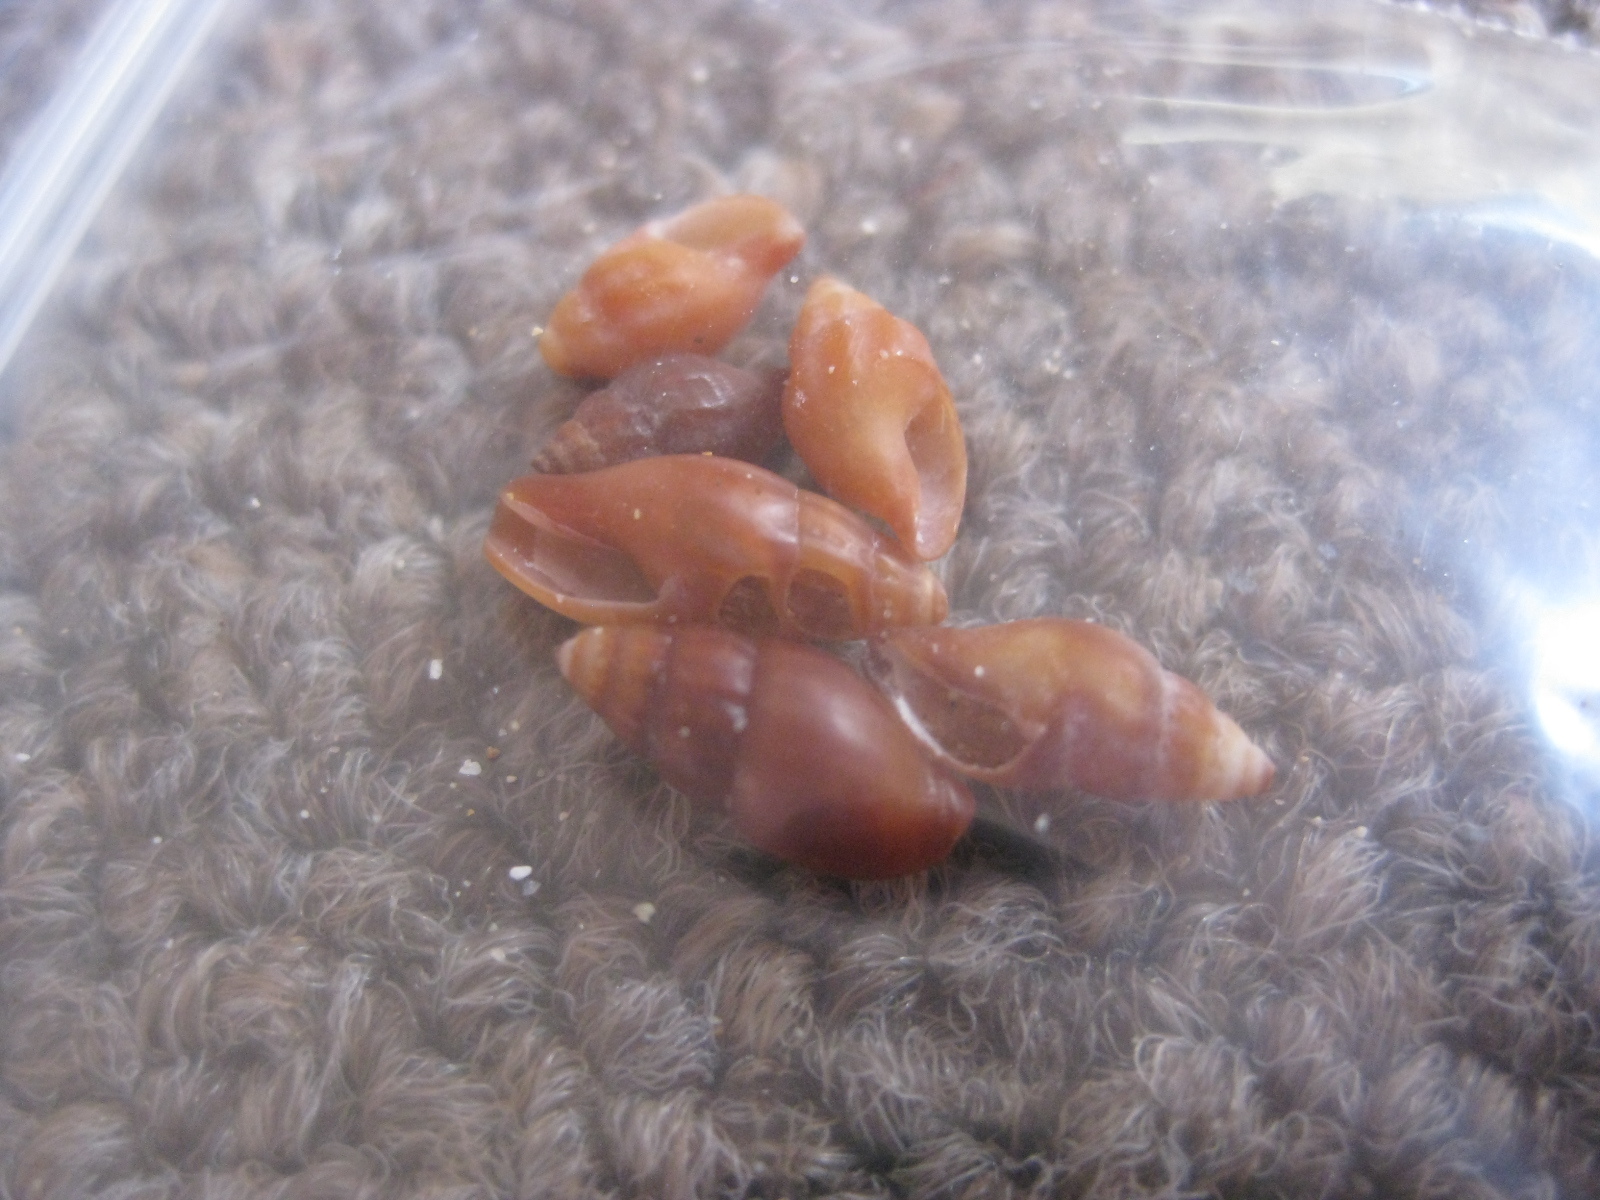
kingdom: Animalia
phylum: Mollusca
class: Gastropoda
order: Neogastropoda
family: Mangeliidae
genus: Neoguraleus
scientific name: Neoguraleus lyallensis
